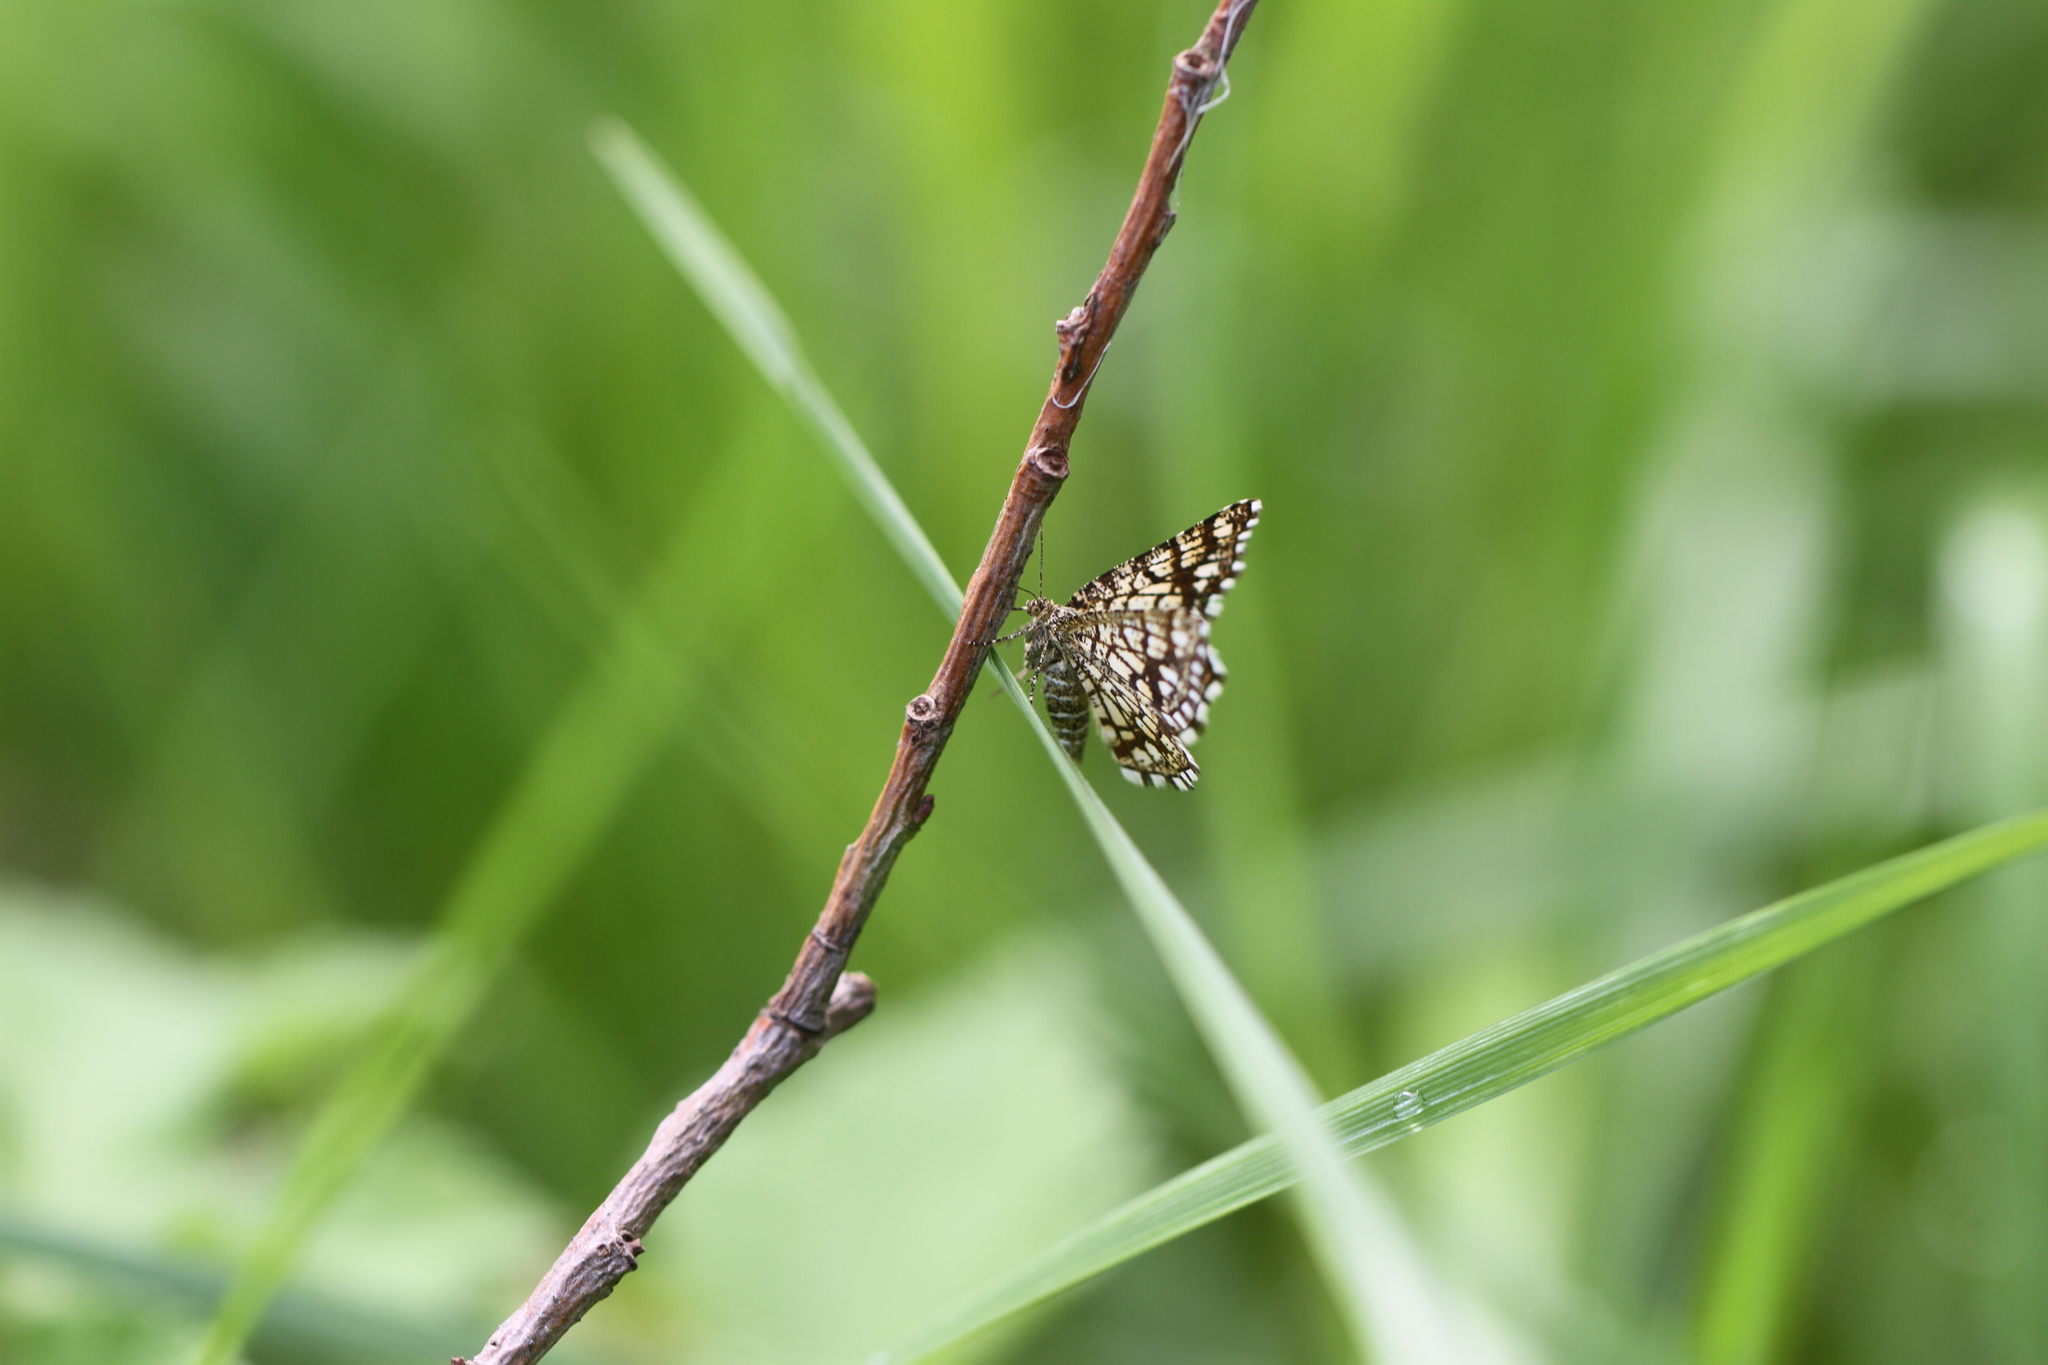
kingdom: Animalia
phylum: Arthropoda
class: Insecta
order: Lepidoptera
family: Geometridae
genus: Chiasmia
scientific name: Chiasmia clathrata
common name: Latticed heath
